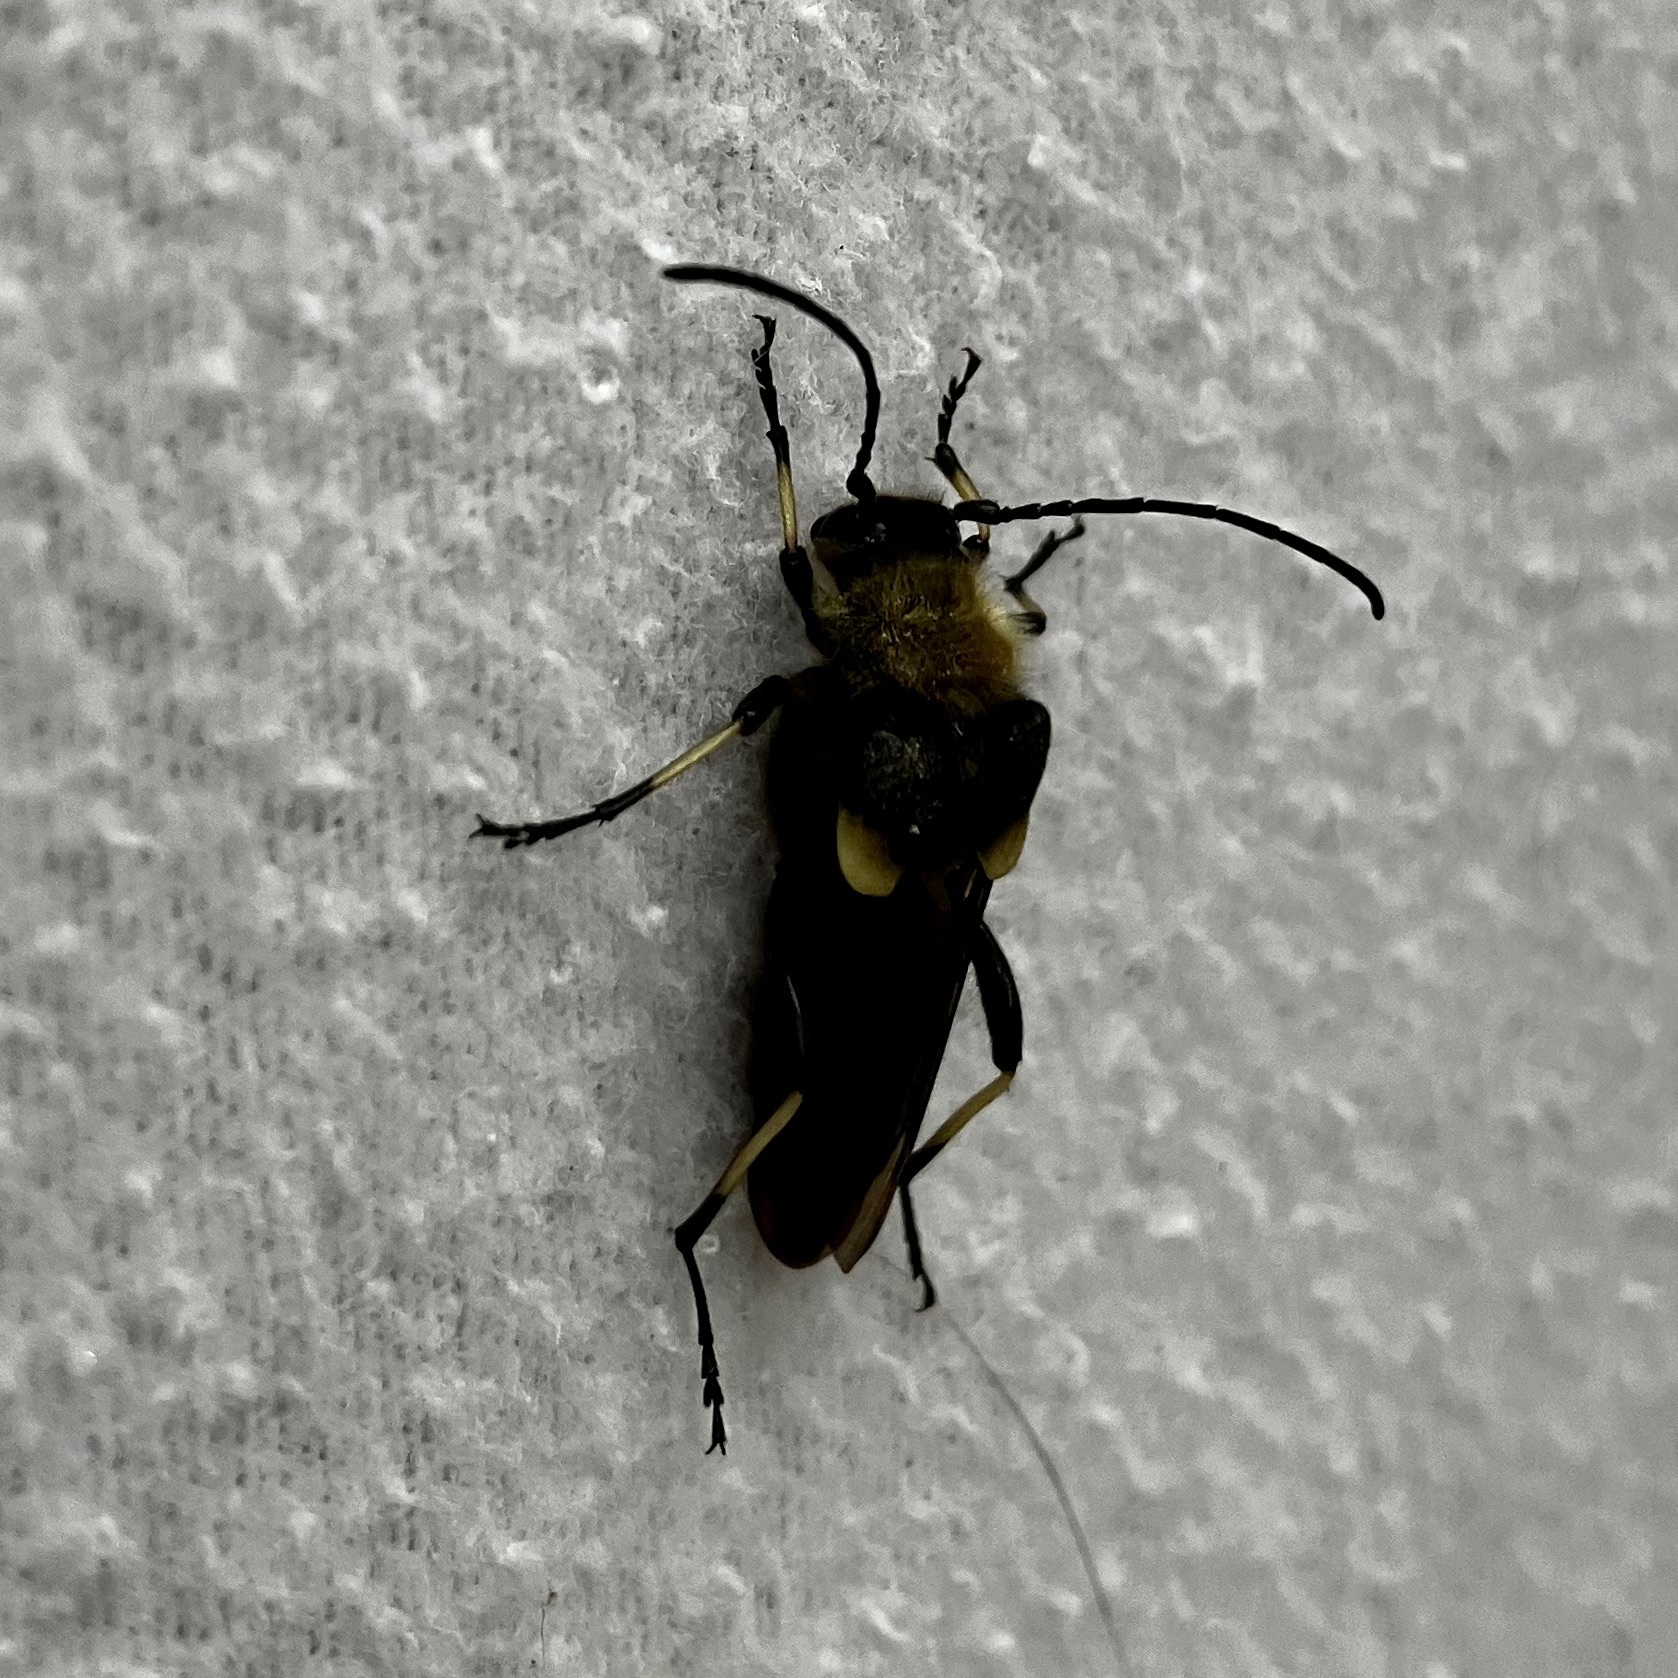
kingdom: Animalia
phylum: Arthropoda
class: Insecta
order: Coleoptera
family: Cerambycidae
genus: Ulochaetes
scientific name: Ulochaetes leoninus
